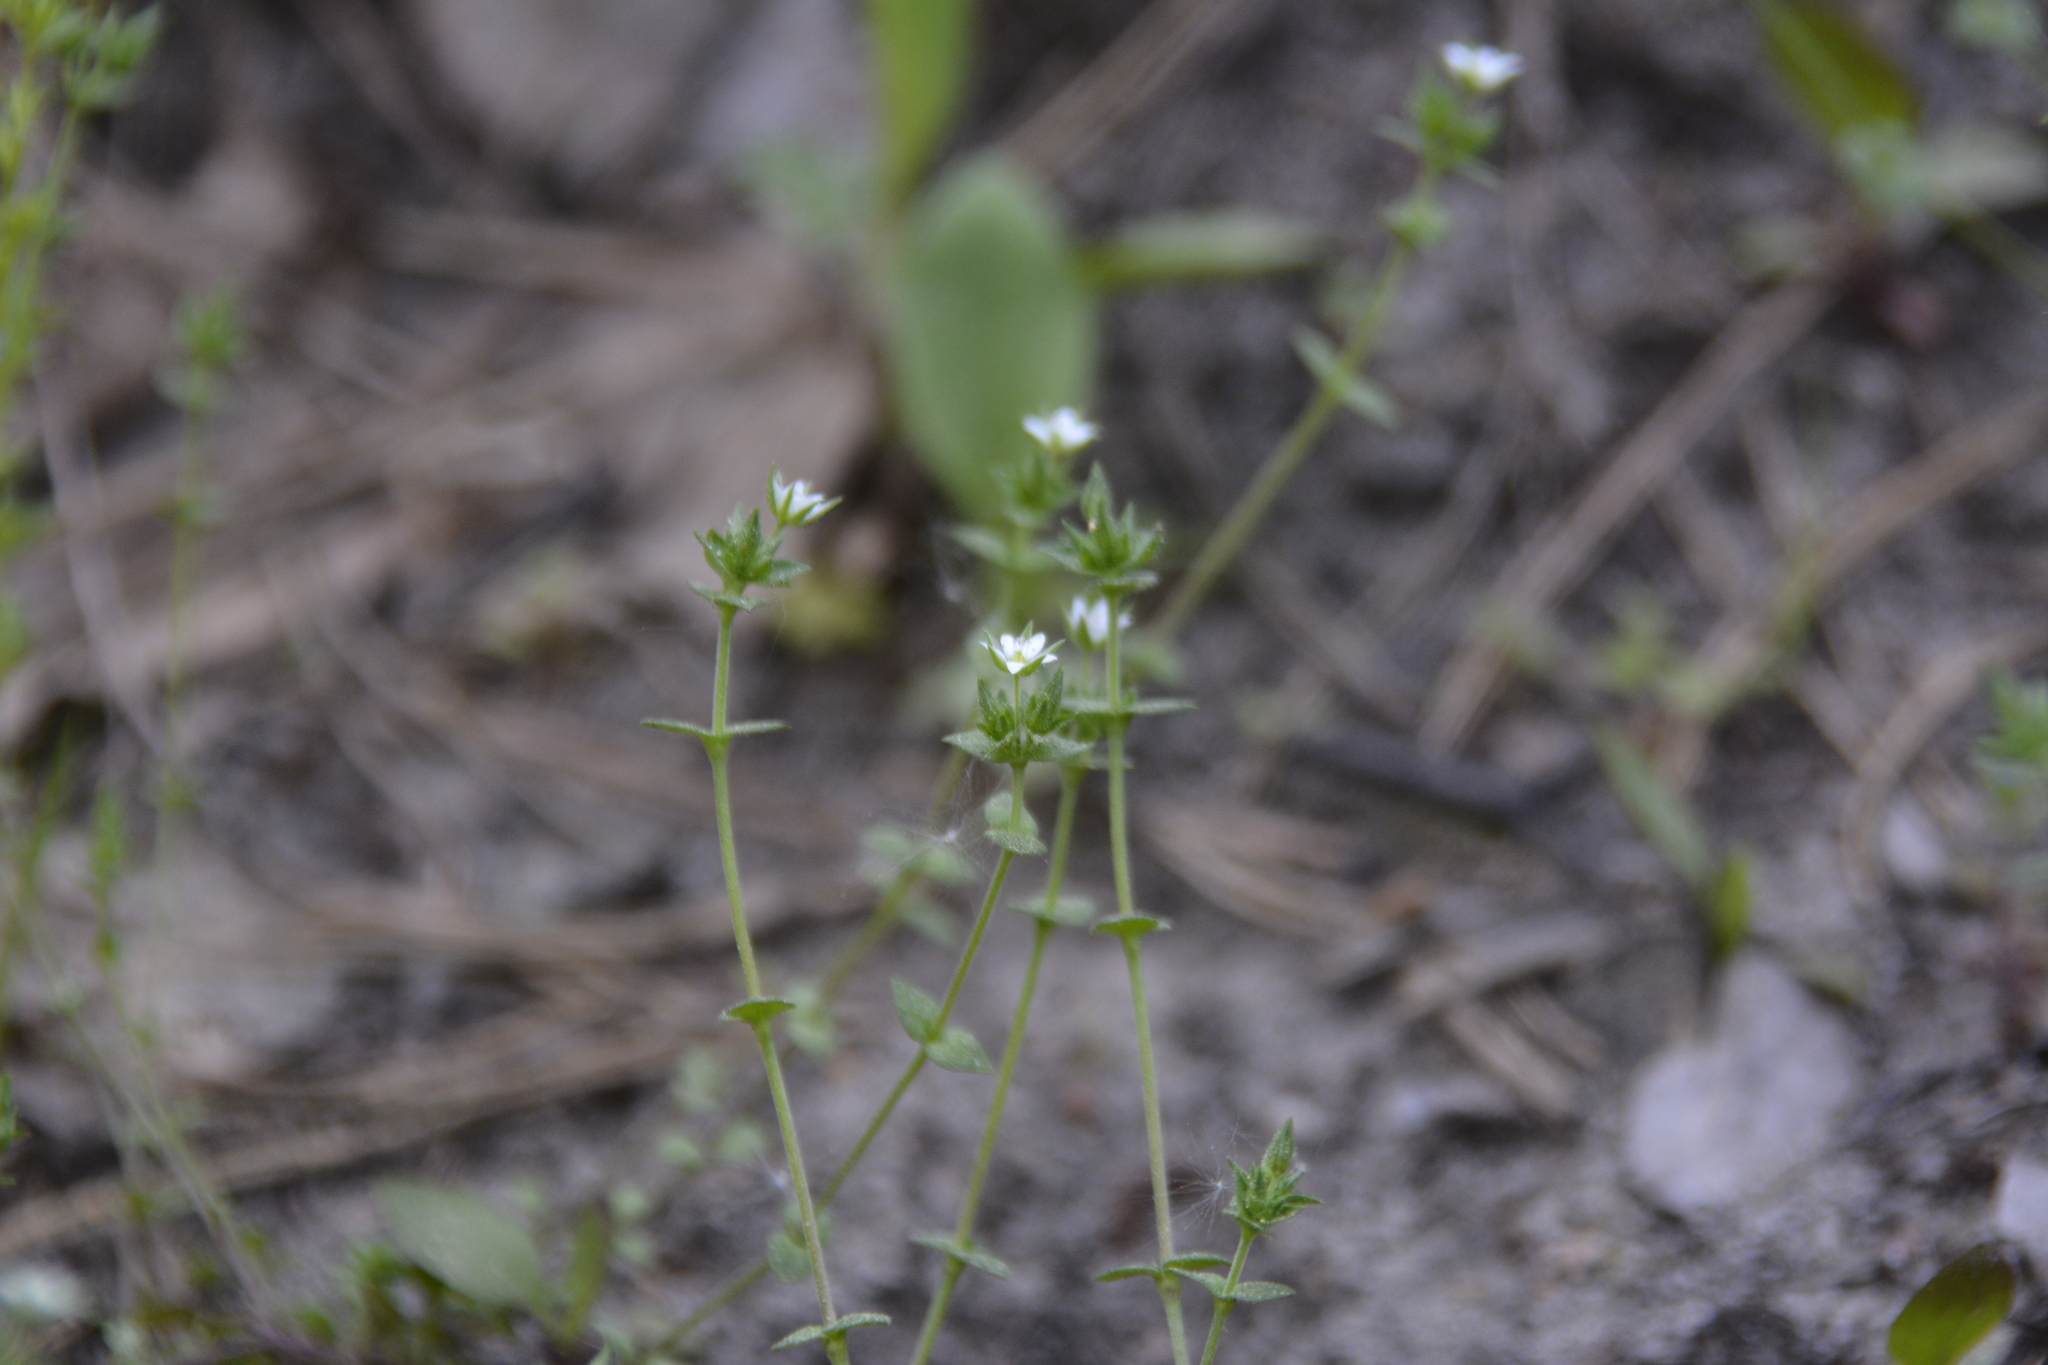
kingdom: Plantae
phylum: Tracheophyta
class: Magnoliopsida
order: Caryophyllales
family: Caryophyllaceae
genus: Arenaria
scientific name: Arenaria serpyllifolia
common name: Thyme-leaved sandwort
